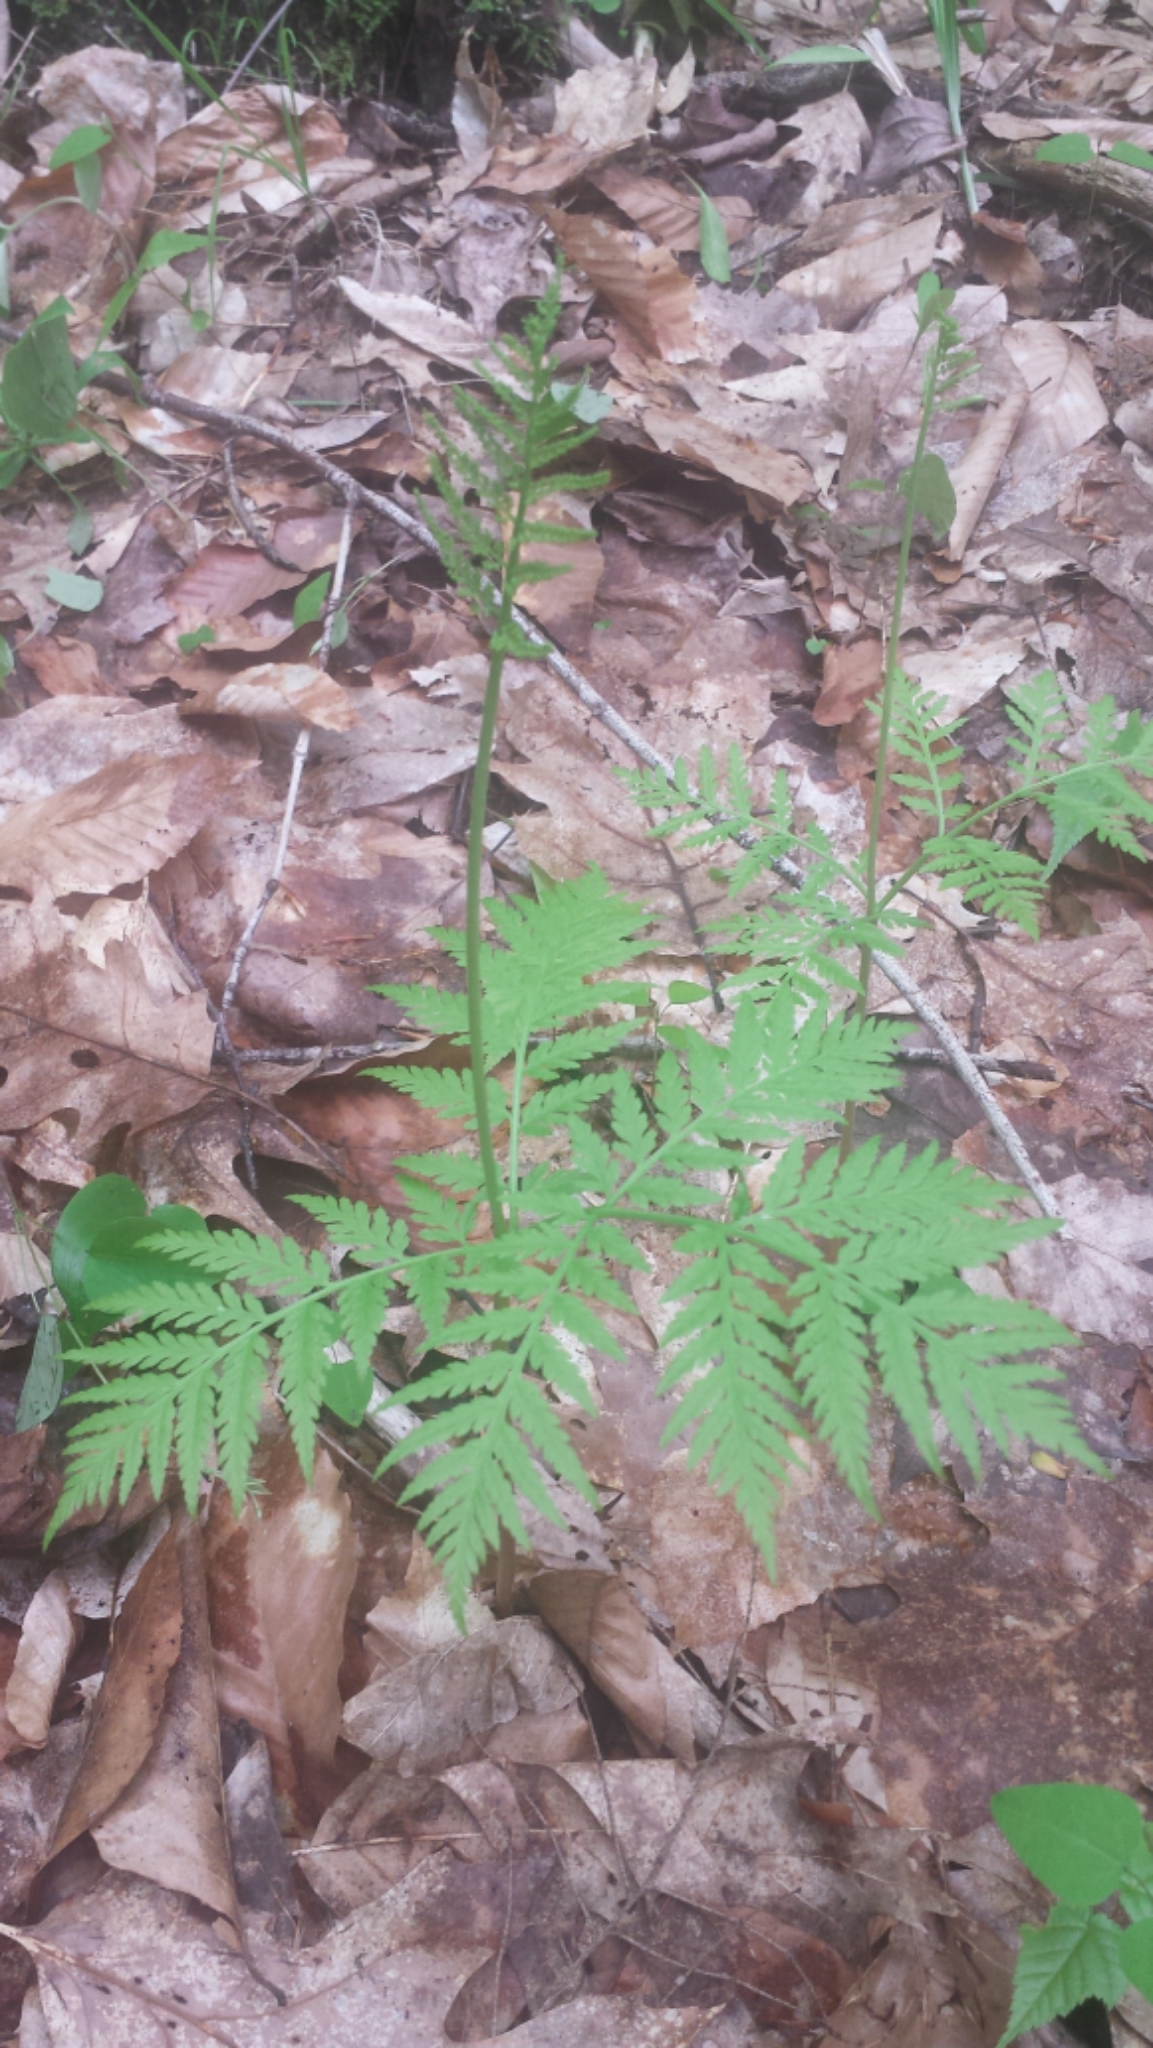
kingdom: Plantae
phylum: Tracheophyta
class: Polypodiopsida
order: Ophioglossales
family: Ophioglossaceae
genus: Botrypus
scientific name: Botrypus virginianus
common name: Common grapefern
